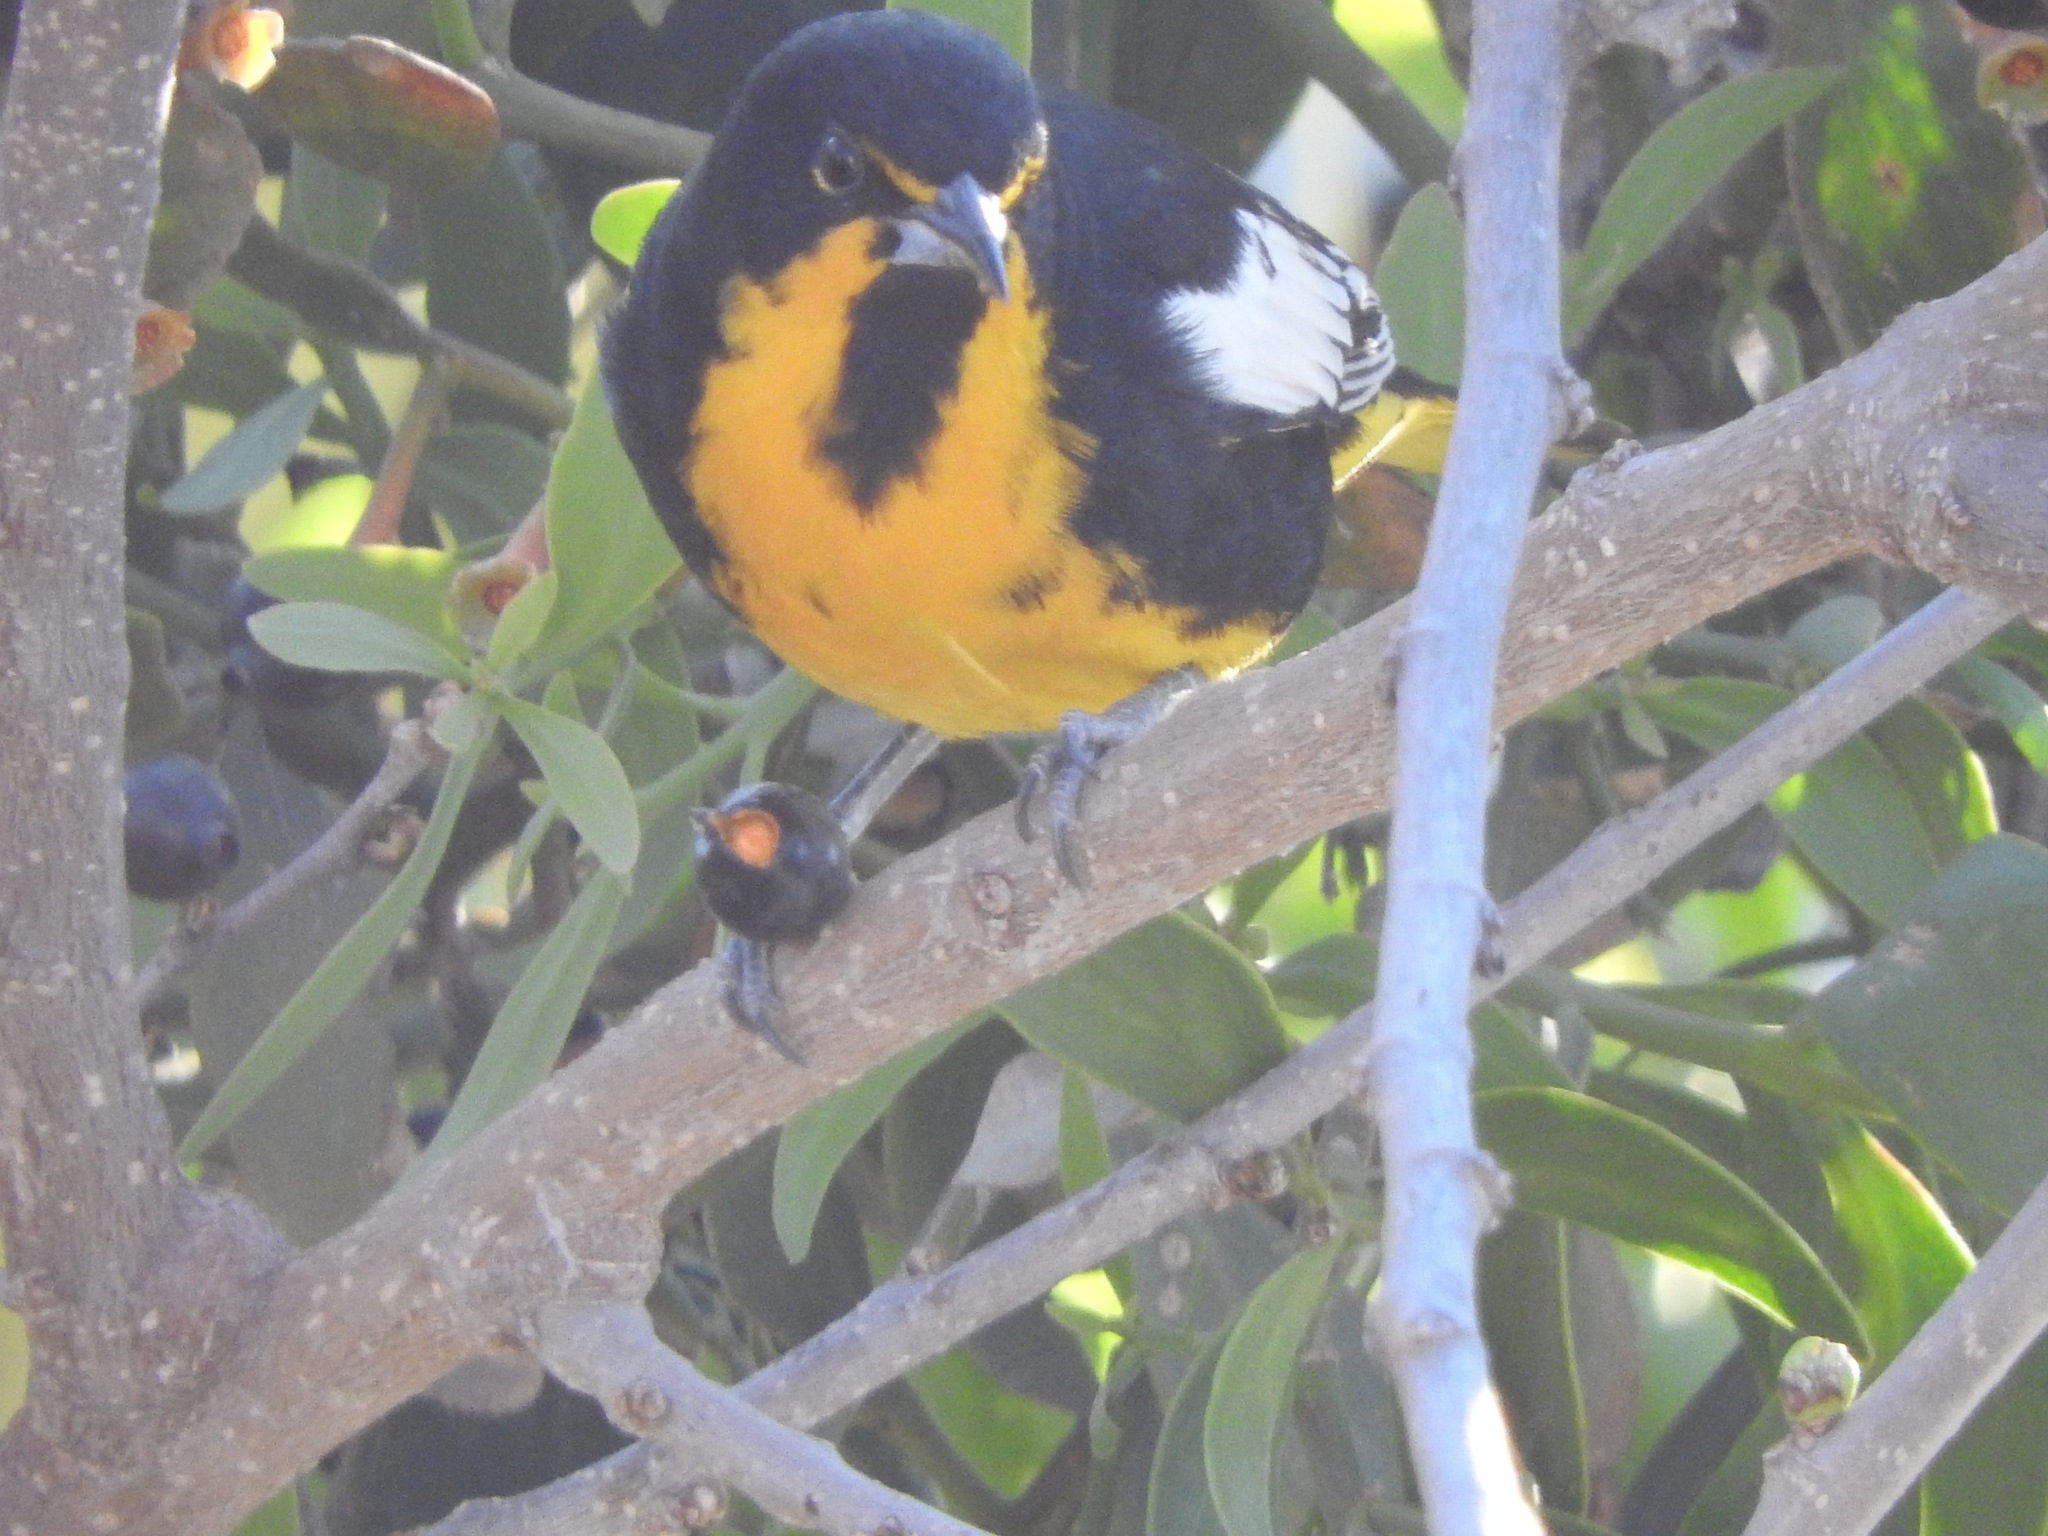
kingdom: Animalia
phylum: Chordata
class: Aves
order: Passeriformes
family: Icteridae
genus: Icterus
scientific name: Icterus abeillei
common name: Black-backed oriole
